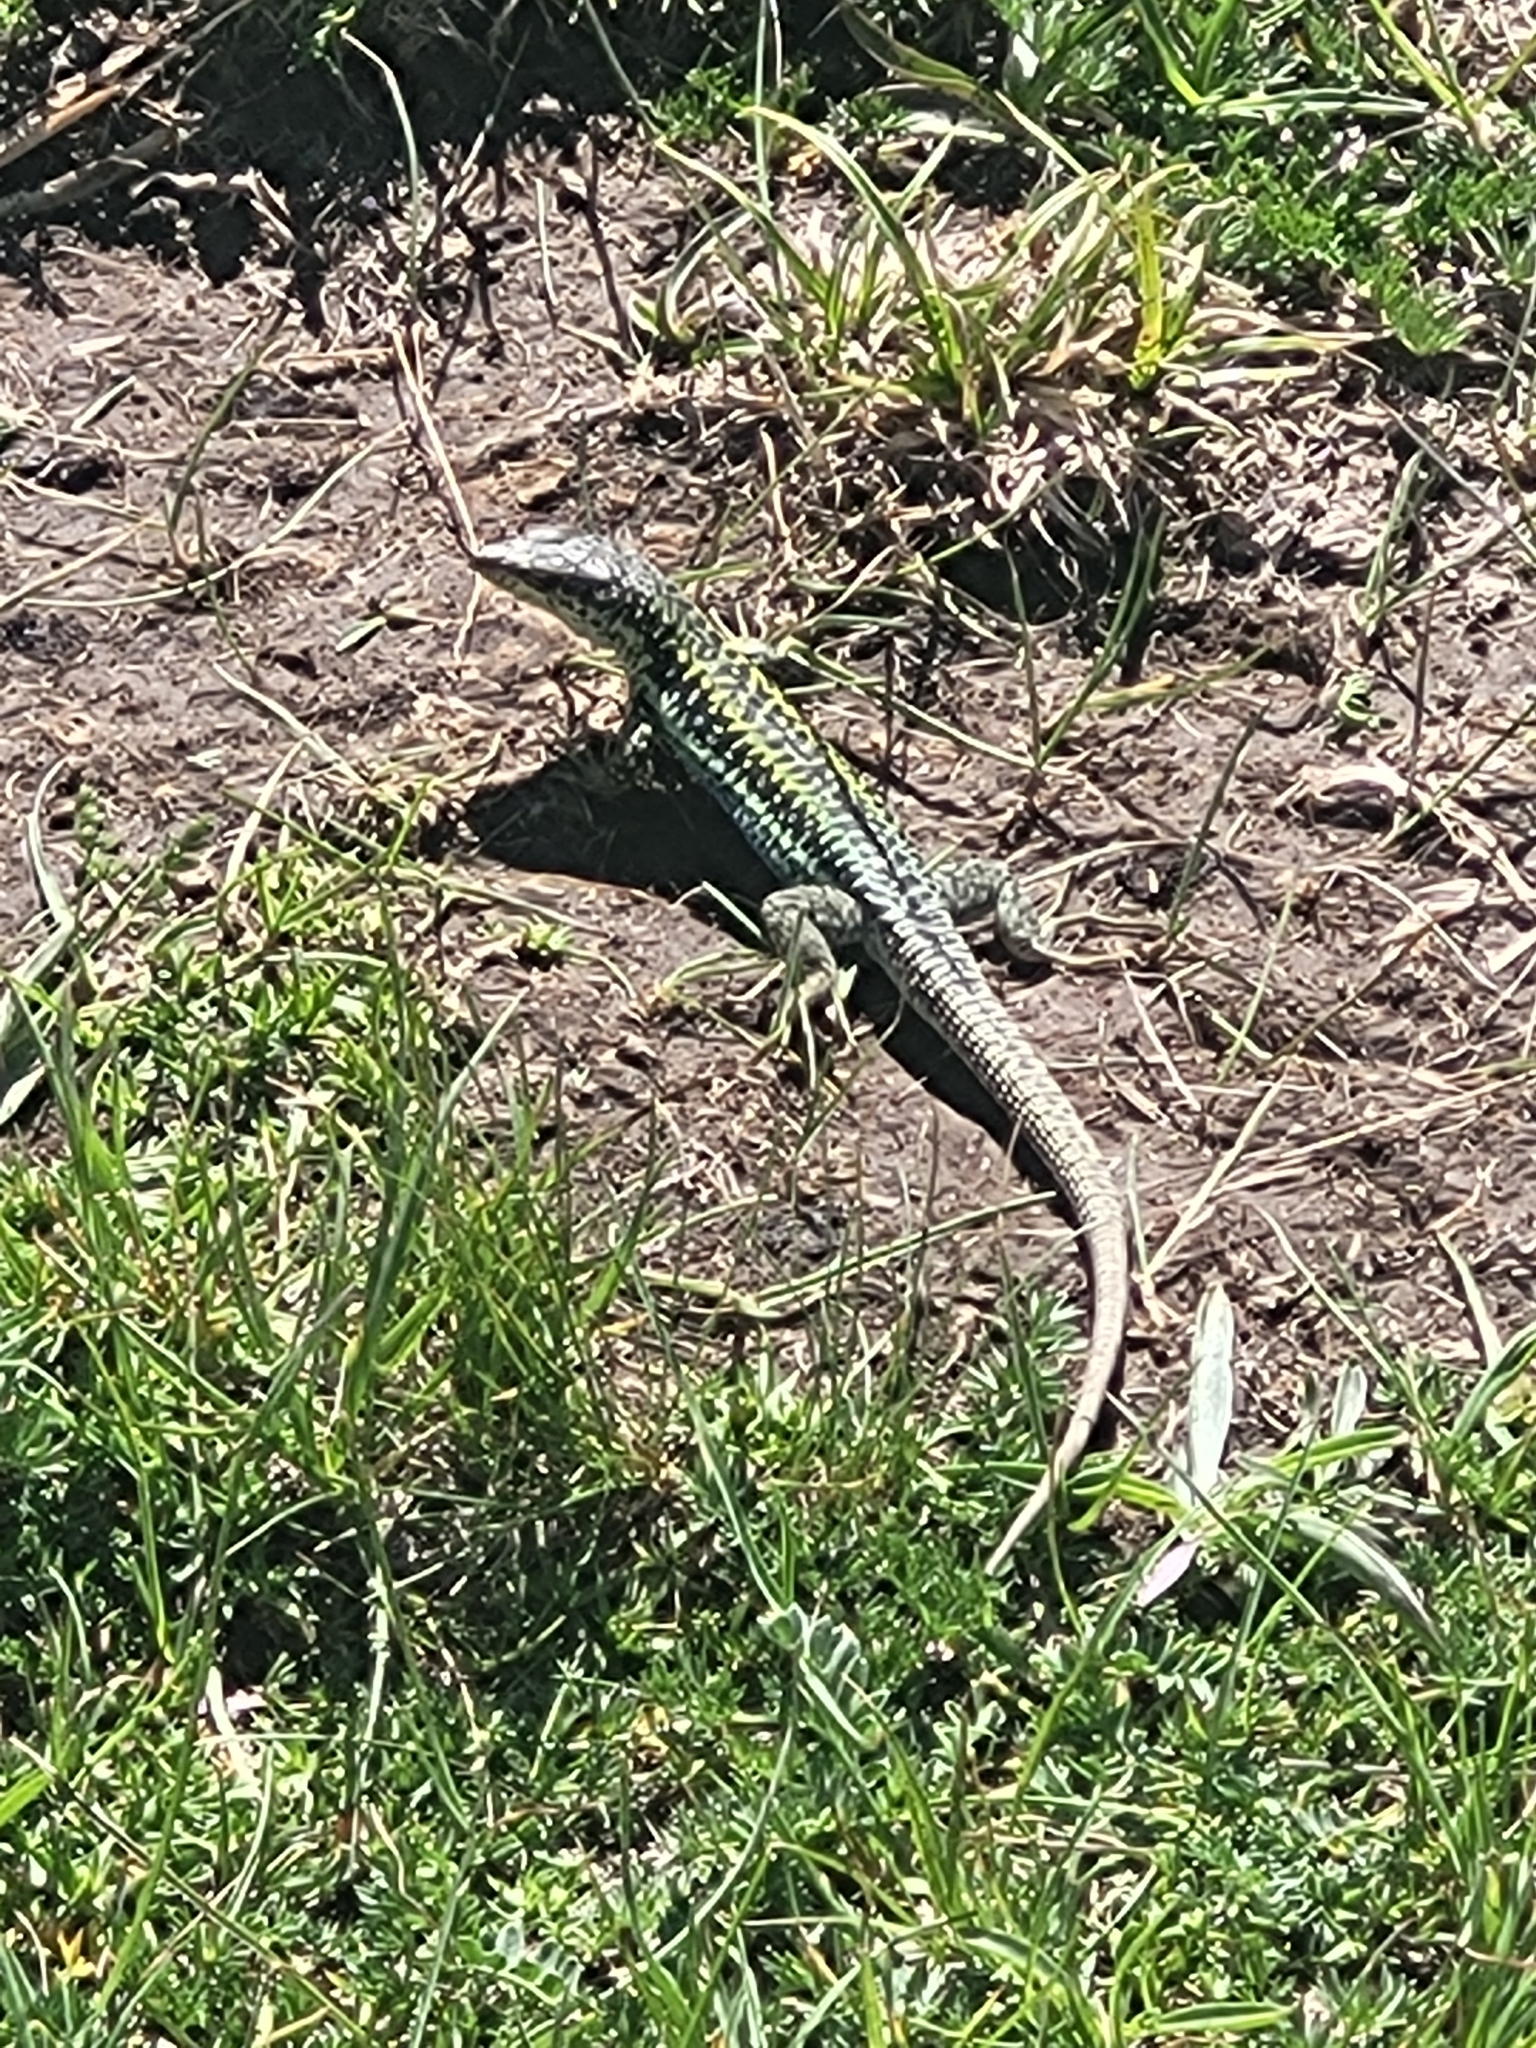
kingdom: Animalia
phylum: Chordata
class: Squamata
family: Lacertidae
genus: Darevskia
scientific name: Darevskia valentini
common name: Valentin's lizard
